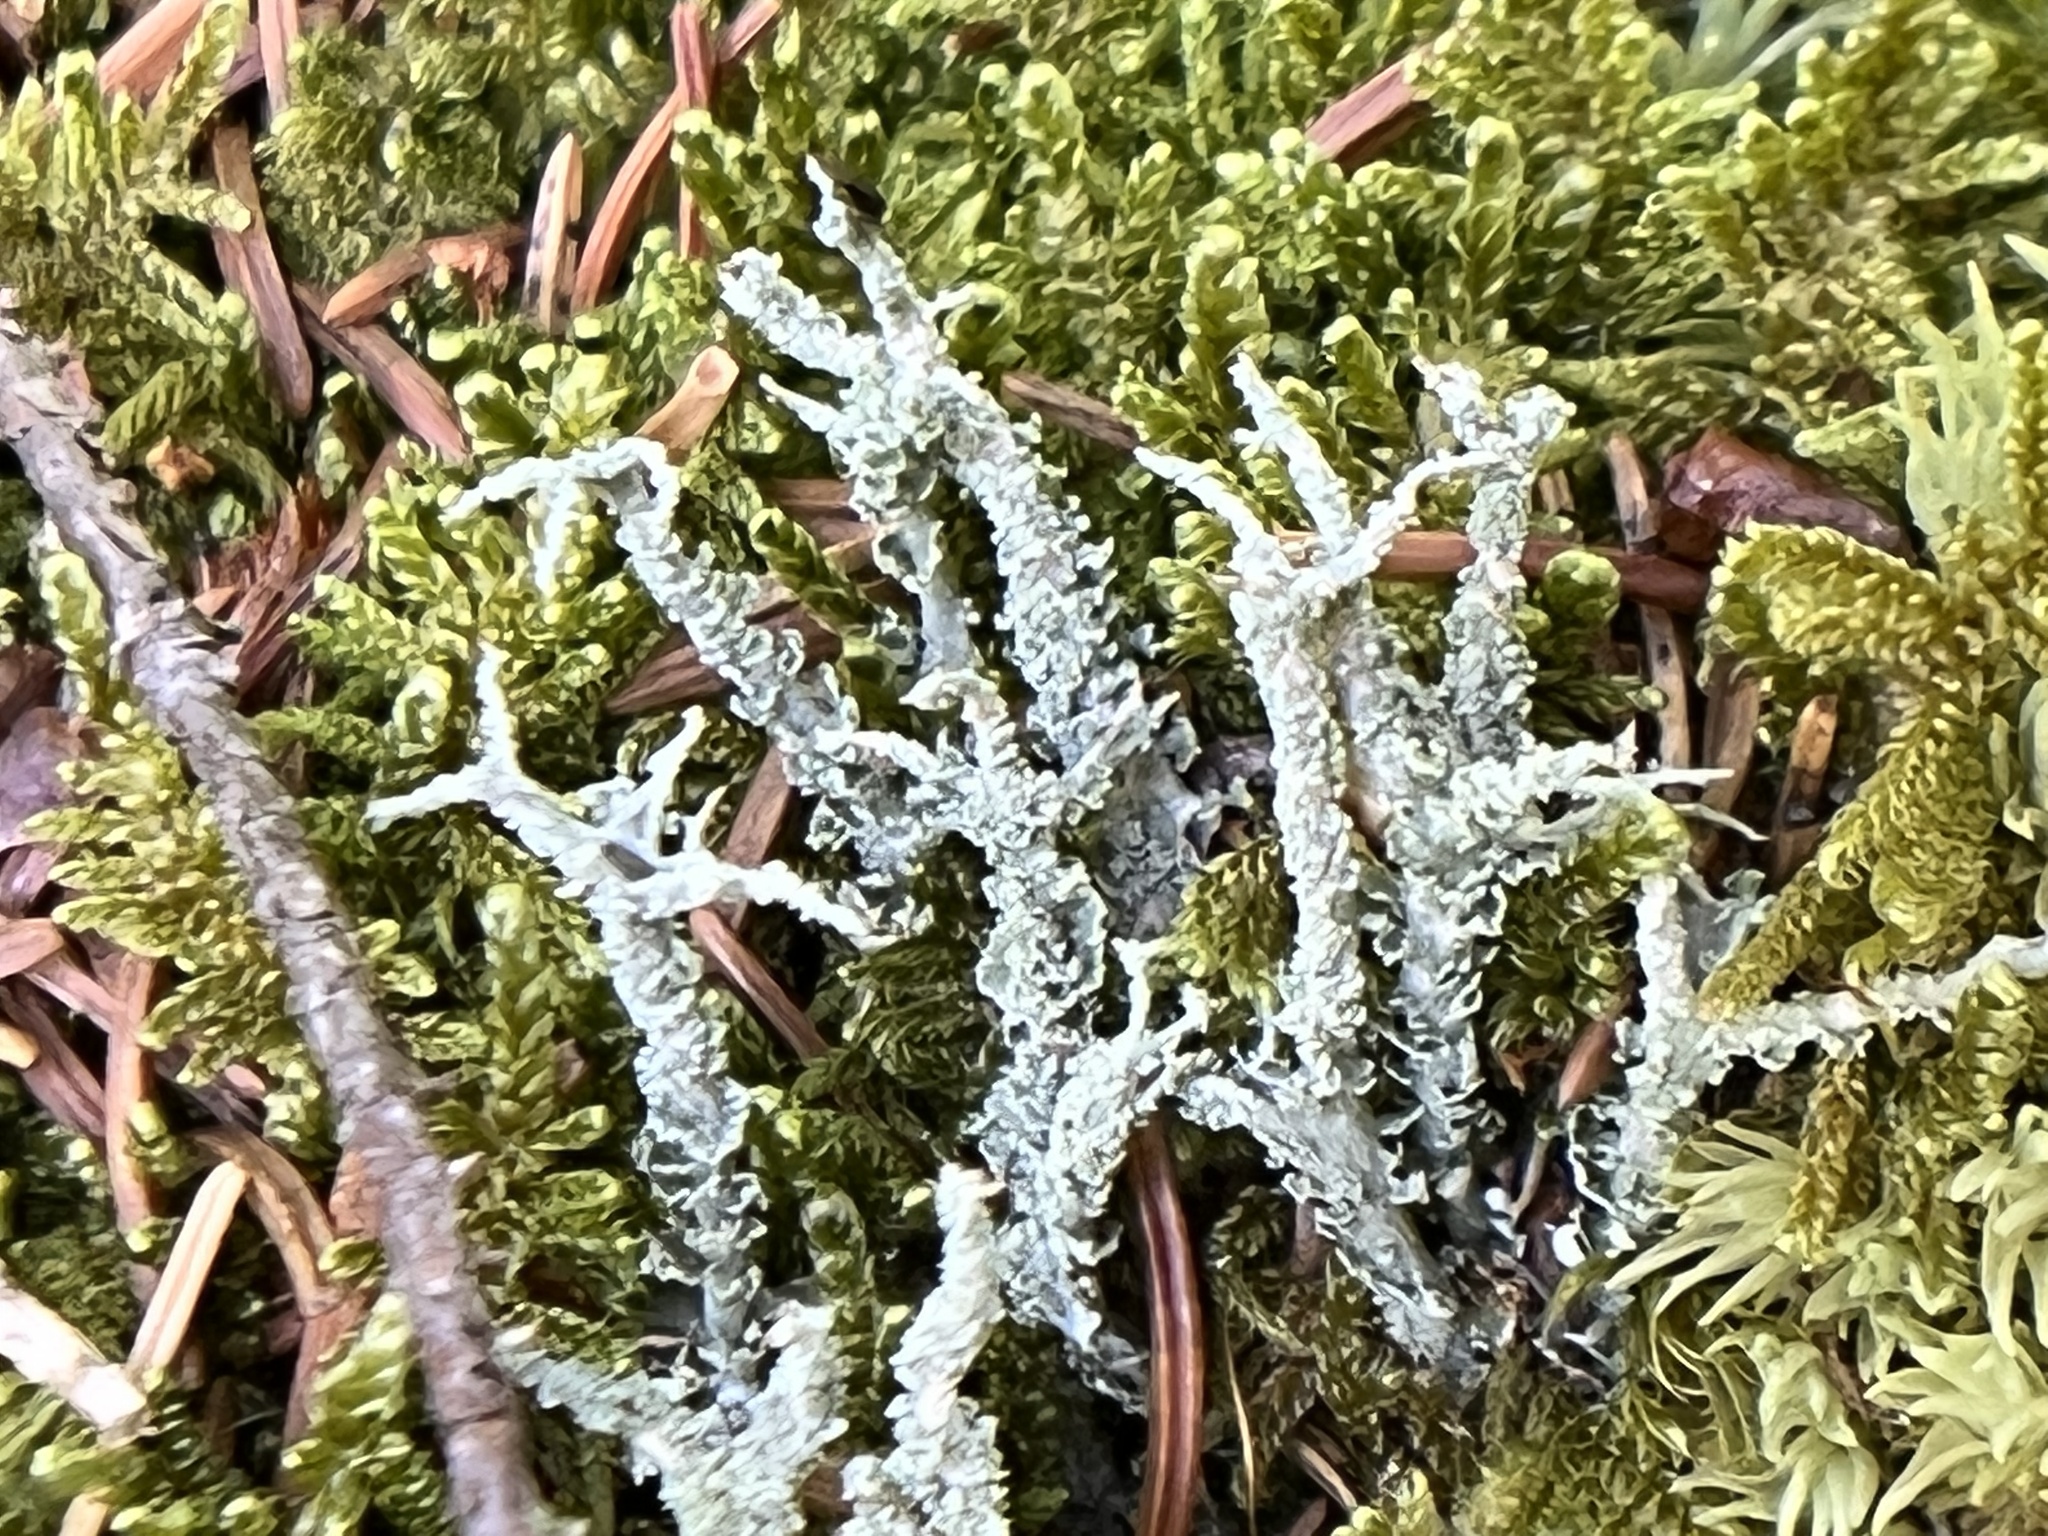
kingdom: Fungi
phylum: Ascomycota
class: Lecanoromycetes
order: Lecanorales
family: Cladoniaceae
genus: Cladonia
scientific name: Cladonia scabriuscula
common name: Mealy forked clad lichen
